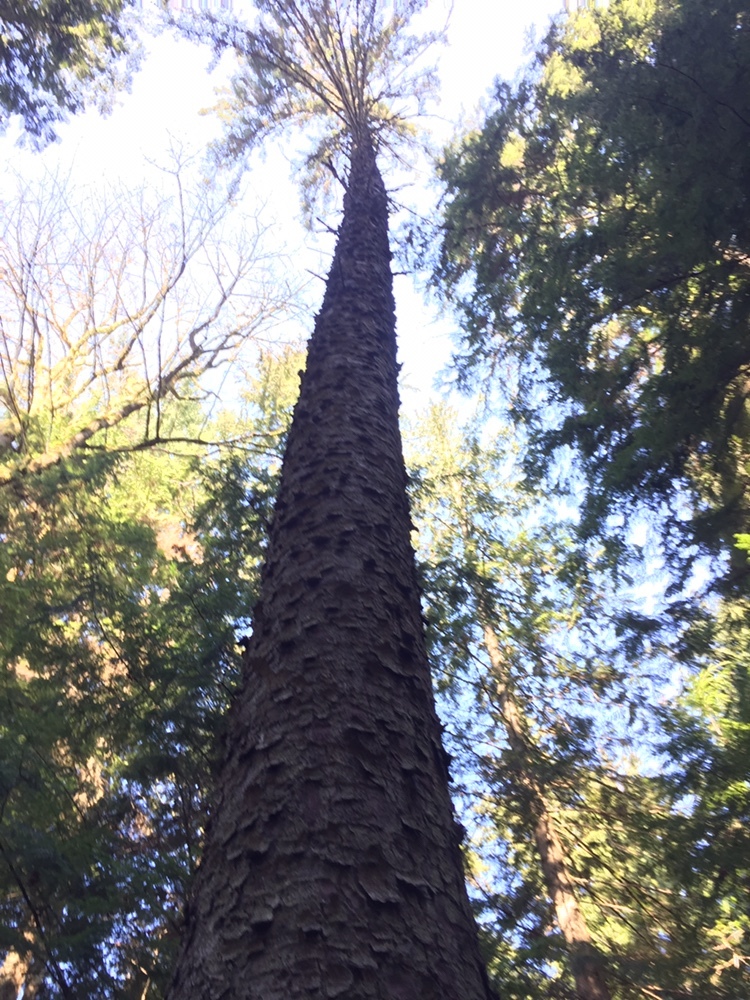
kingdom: Plantae
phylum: Tracheophyta
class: Pinopsida
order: Pinales
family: Pinaceae
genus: Picea
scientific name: Picea sitchensis
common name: Sitka spruce
